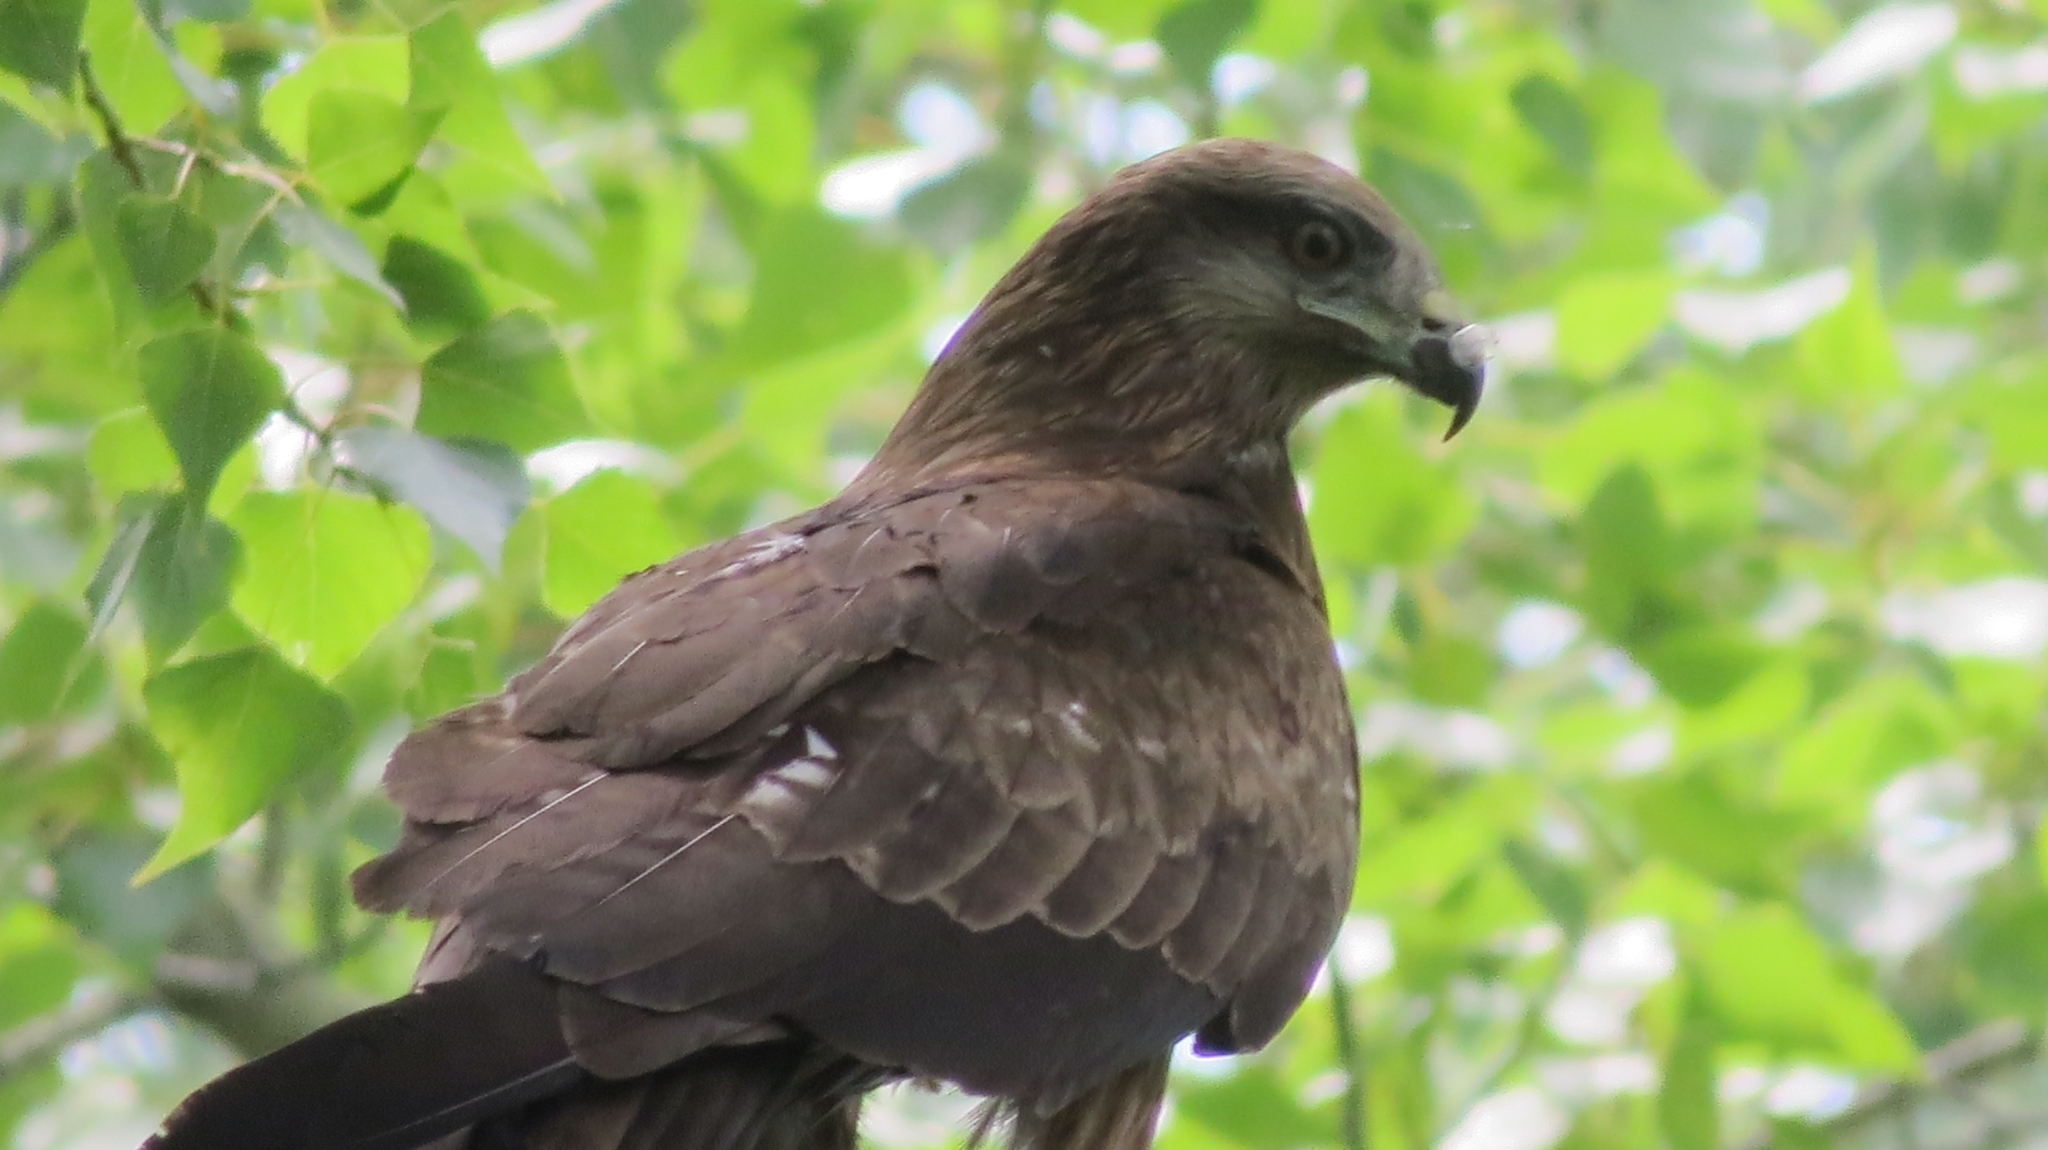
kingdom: Animalia
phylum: Chordata
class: Aves
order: Accipitriformes
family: Accipitridae
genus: Milvus
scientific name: Milvus migrans
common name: Black kite
